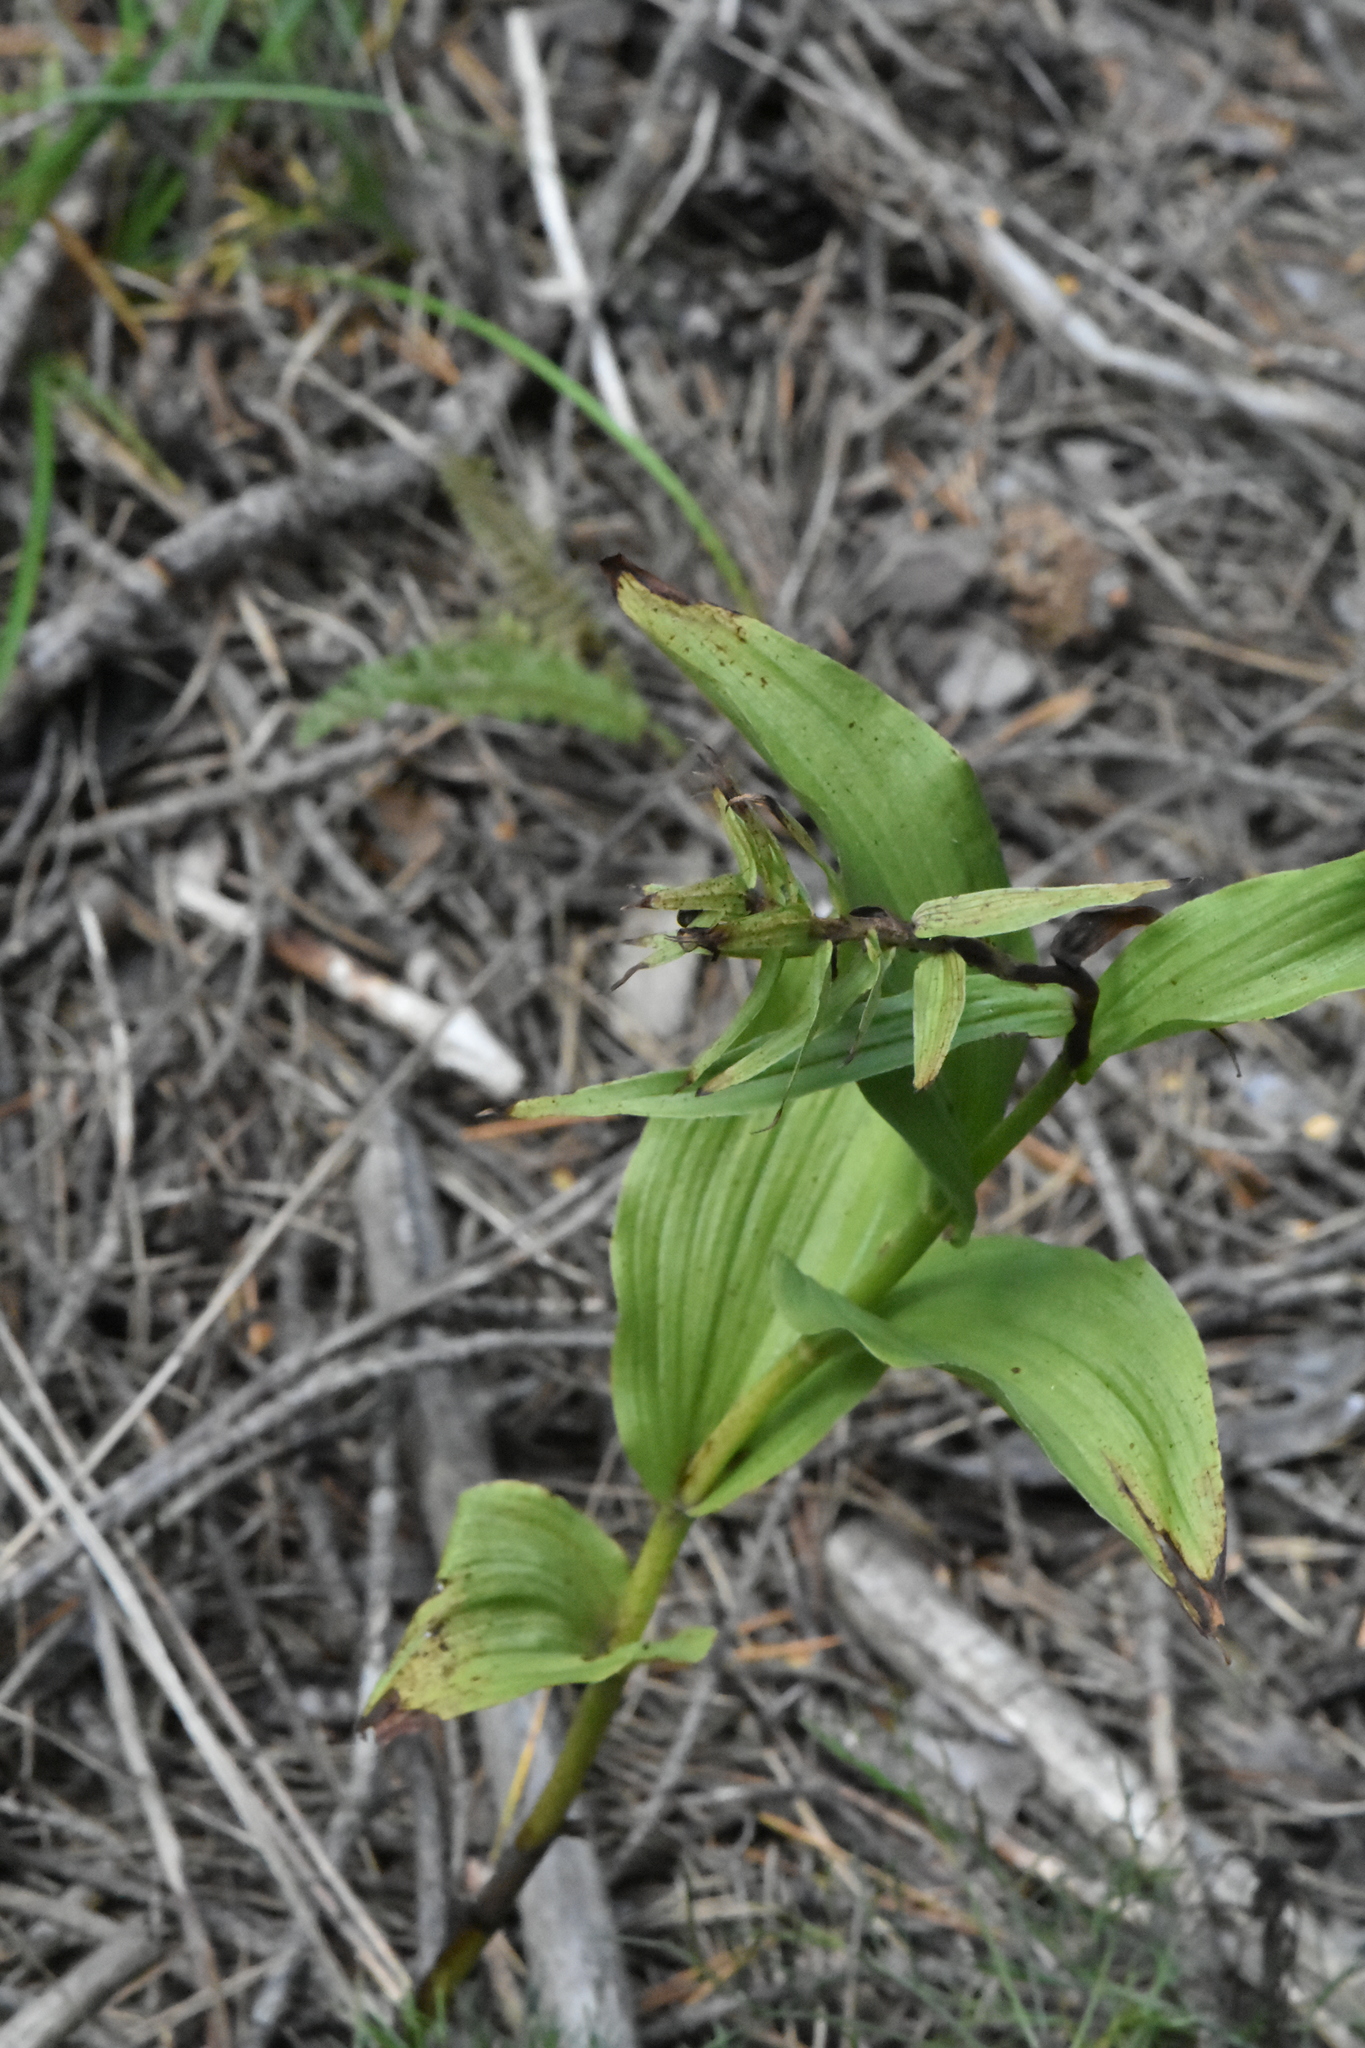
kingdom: Plantae
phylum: Tracheophyta
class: Liliopsida
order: Asparagales
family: Orchidaceae
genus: Epipactis
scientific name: Epipactis helleborine
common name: Broad-leaved helleborine
